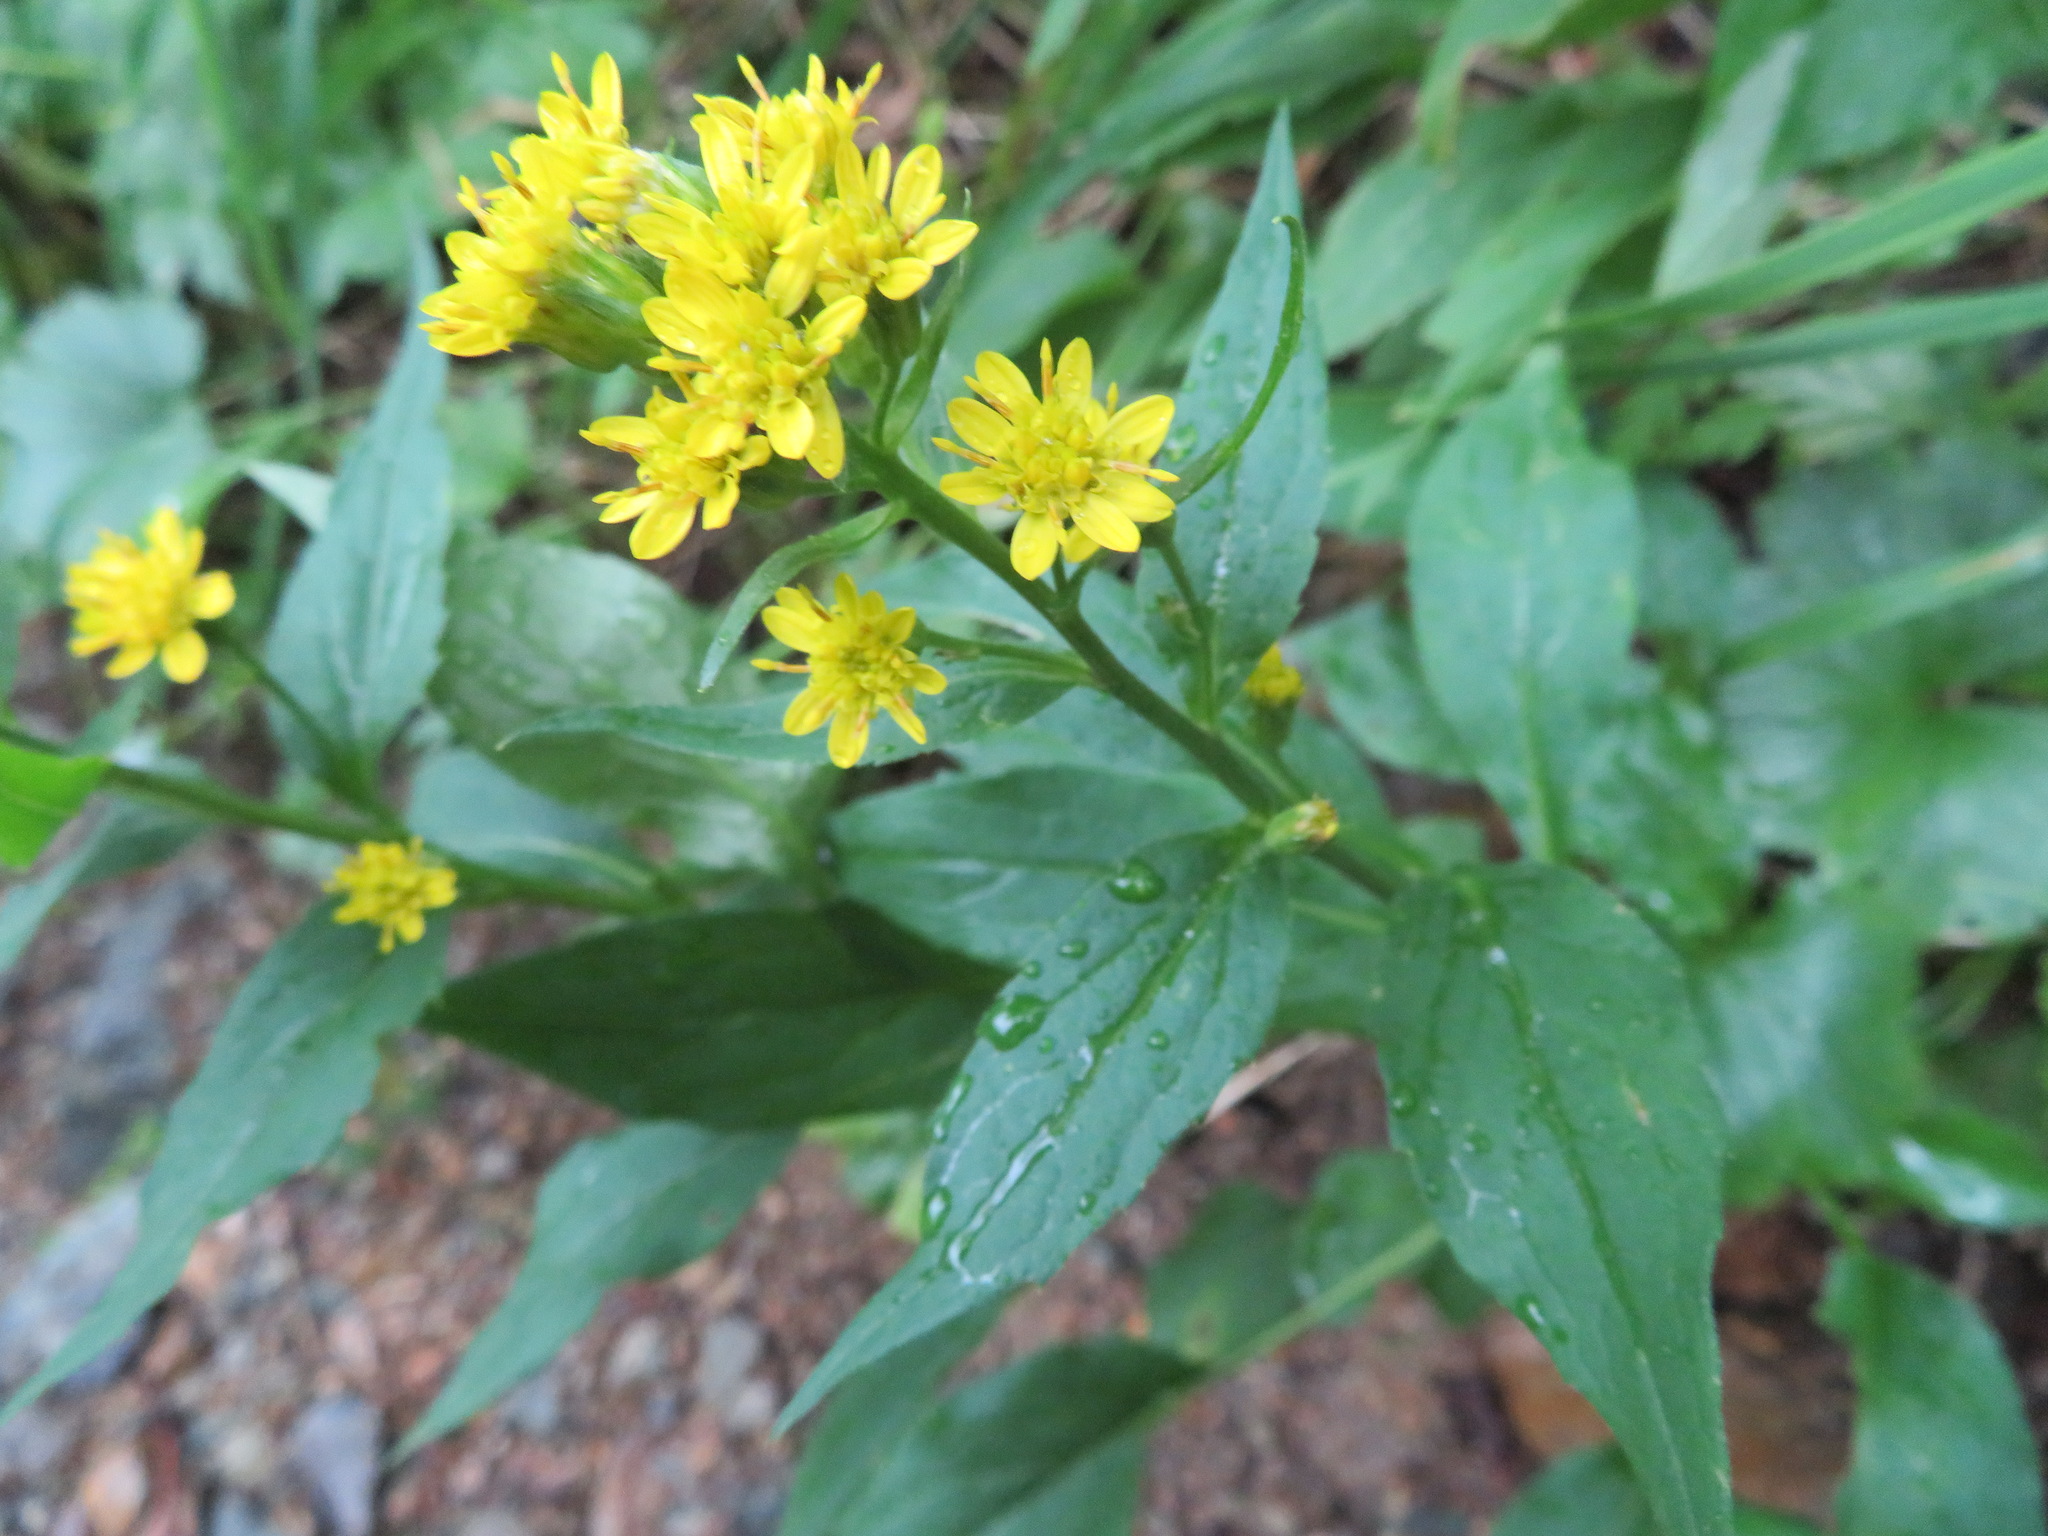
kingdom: Plantae
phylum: Tracheophyta
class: Magnoliopsida
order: Asterales
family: Asteraceae
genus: Solidago
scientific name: Solidago decurrens
